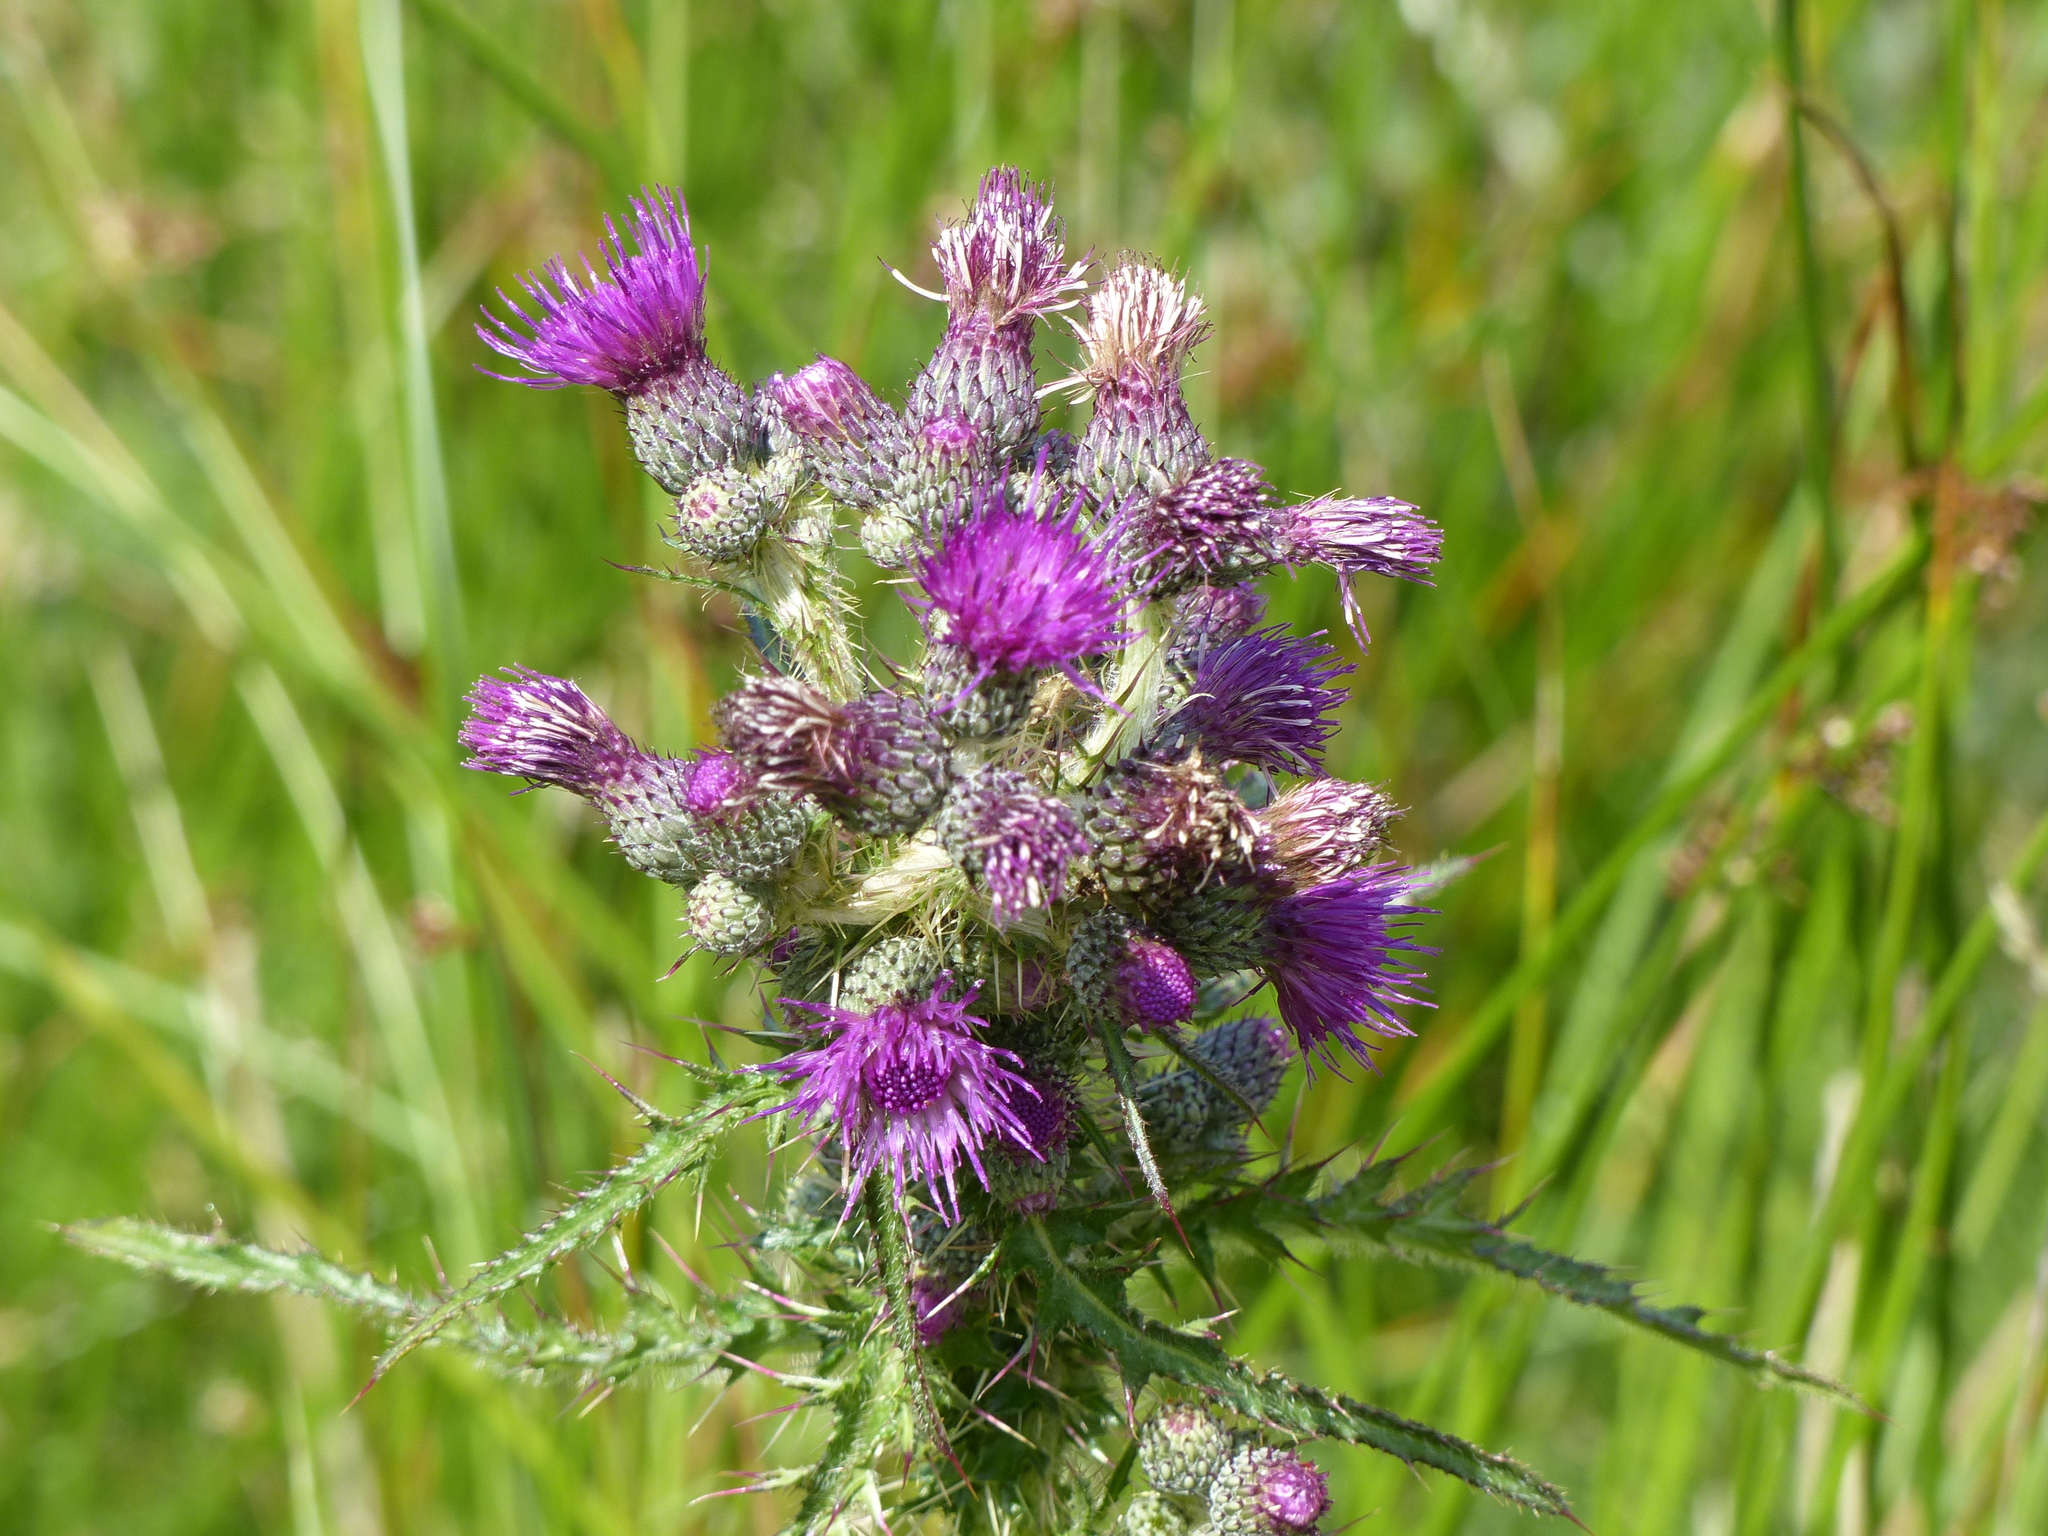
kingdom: Plantae
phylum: Tracheophyta
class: Magnoliopsida
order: Asterales
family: Asteraceae
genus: Cirsium
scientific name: Cirsium palustre
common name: Marsh thistle
